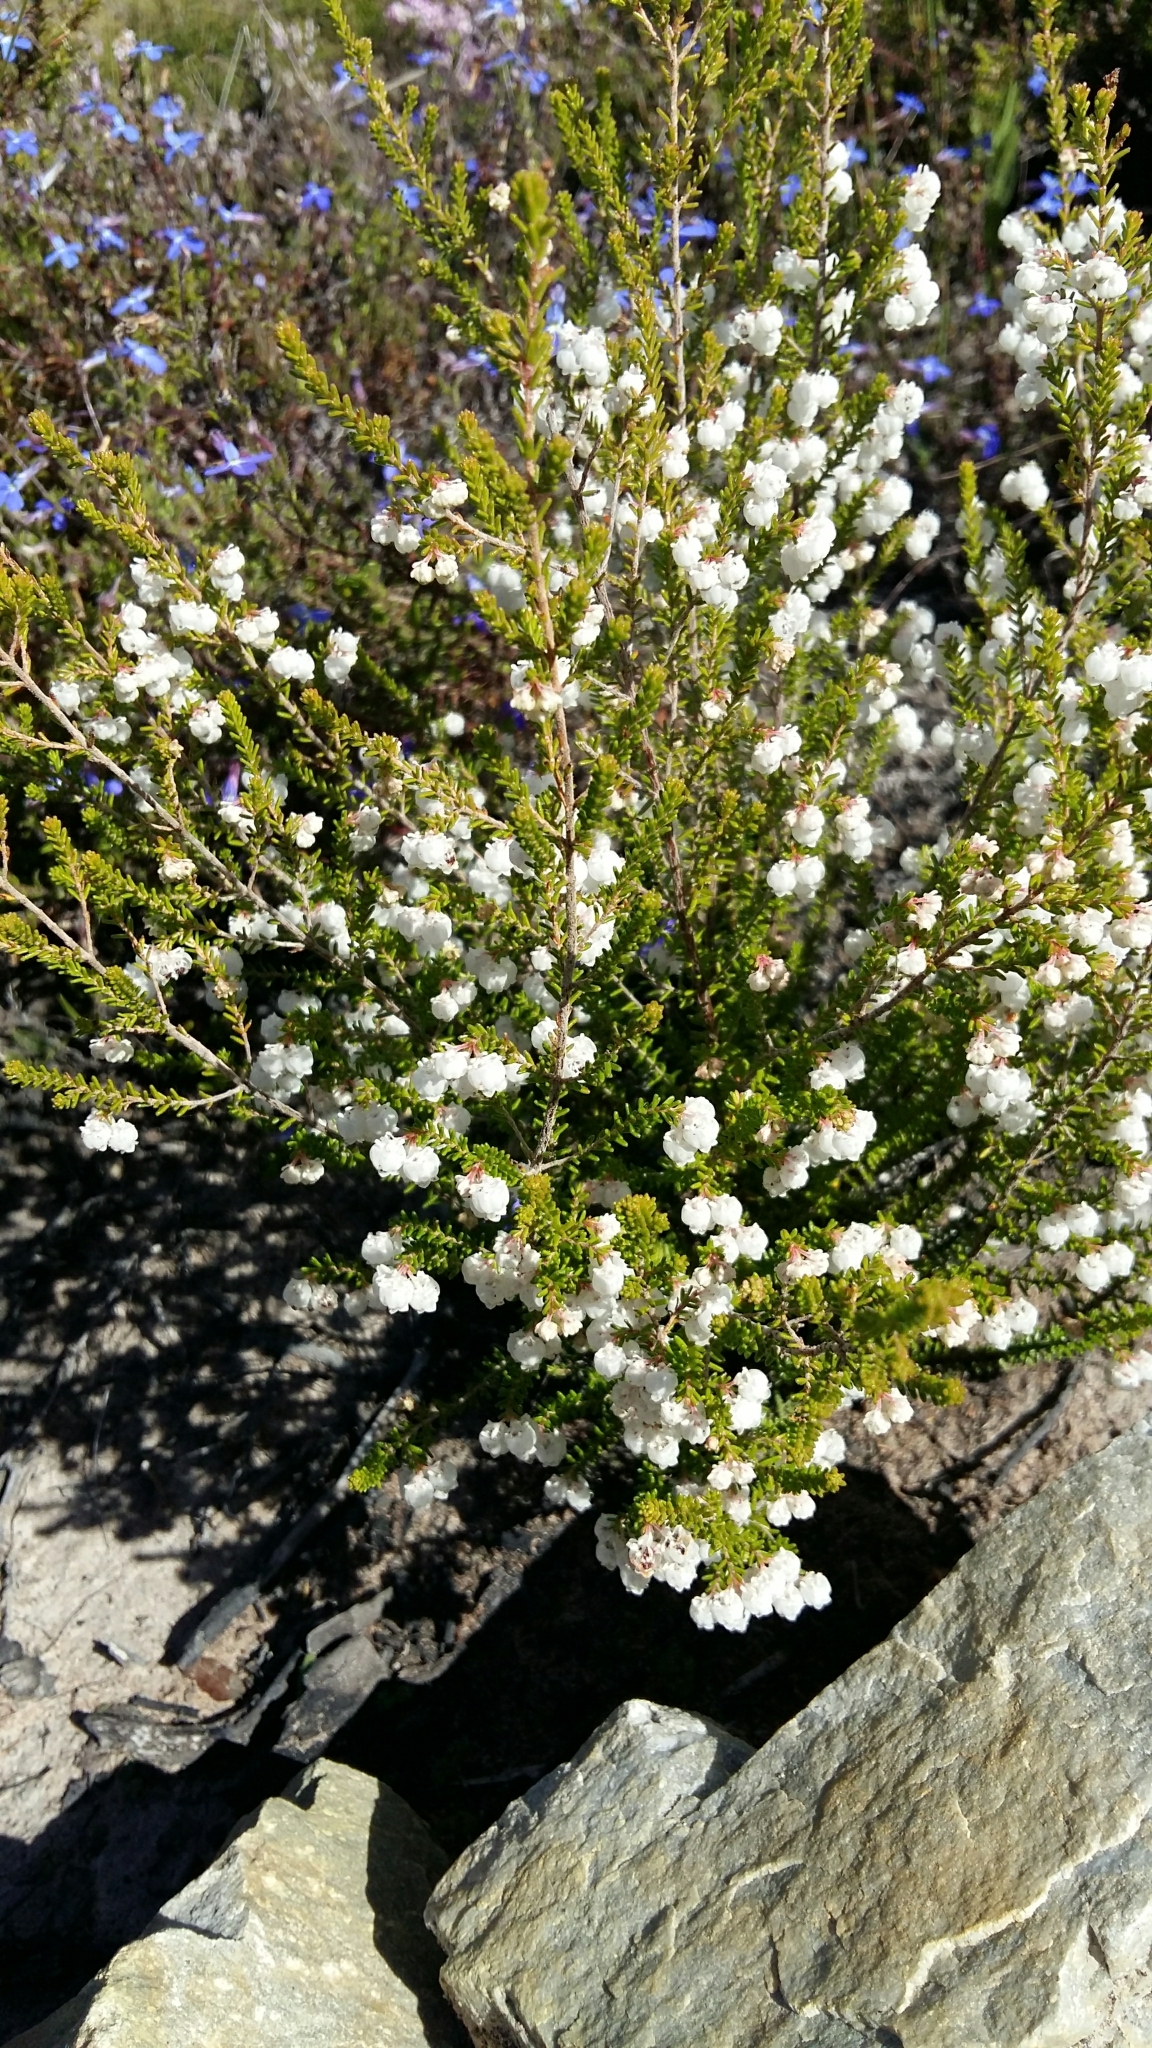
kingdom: Plantae
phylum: Tracheophyta
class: Magnoliopsida
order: Ericales
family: Ericaceae
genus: Erica
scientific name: Erica formosa
